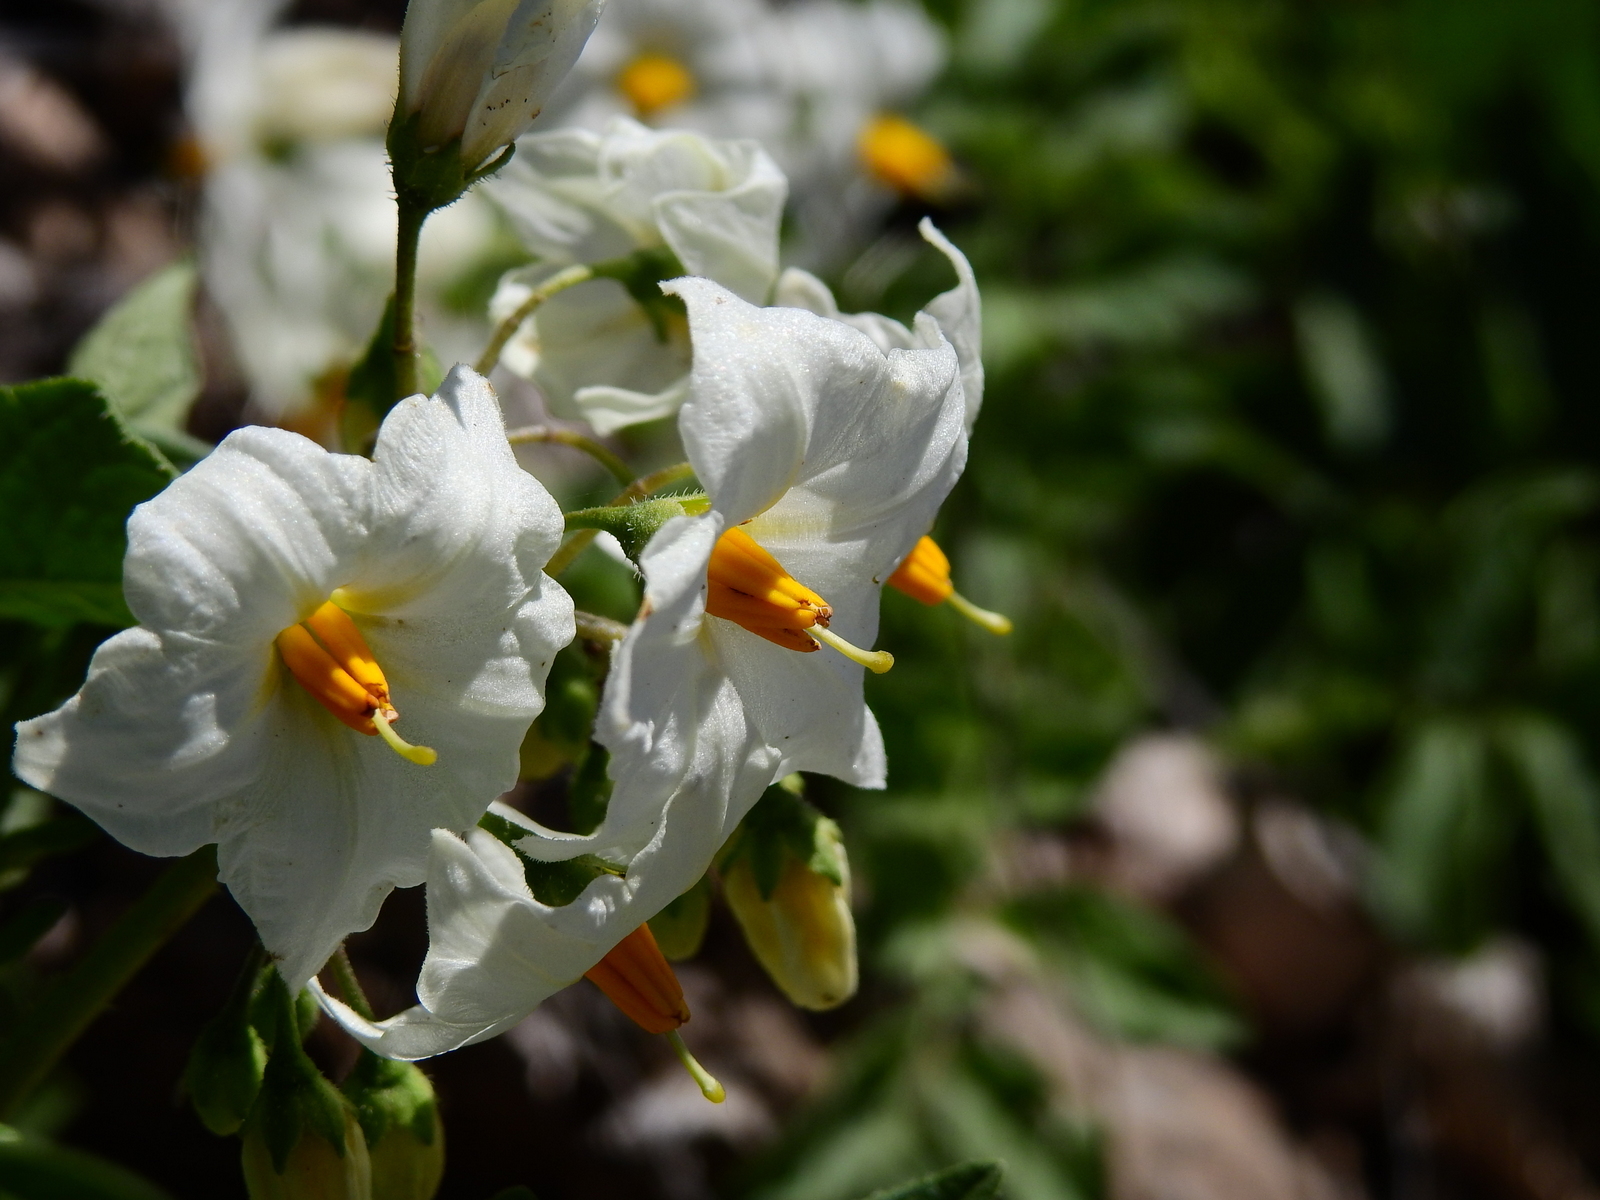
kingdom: Plantae
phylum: Tracheophyta
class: Magnoliopsida
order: Solanales
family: Solanaceae
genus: Solanum
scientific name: Solanum kurtzianum
